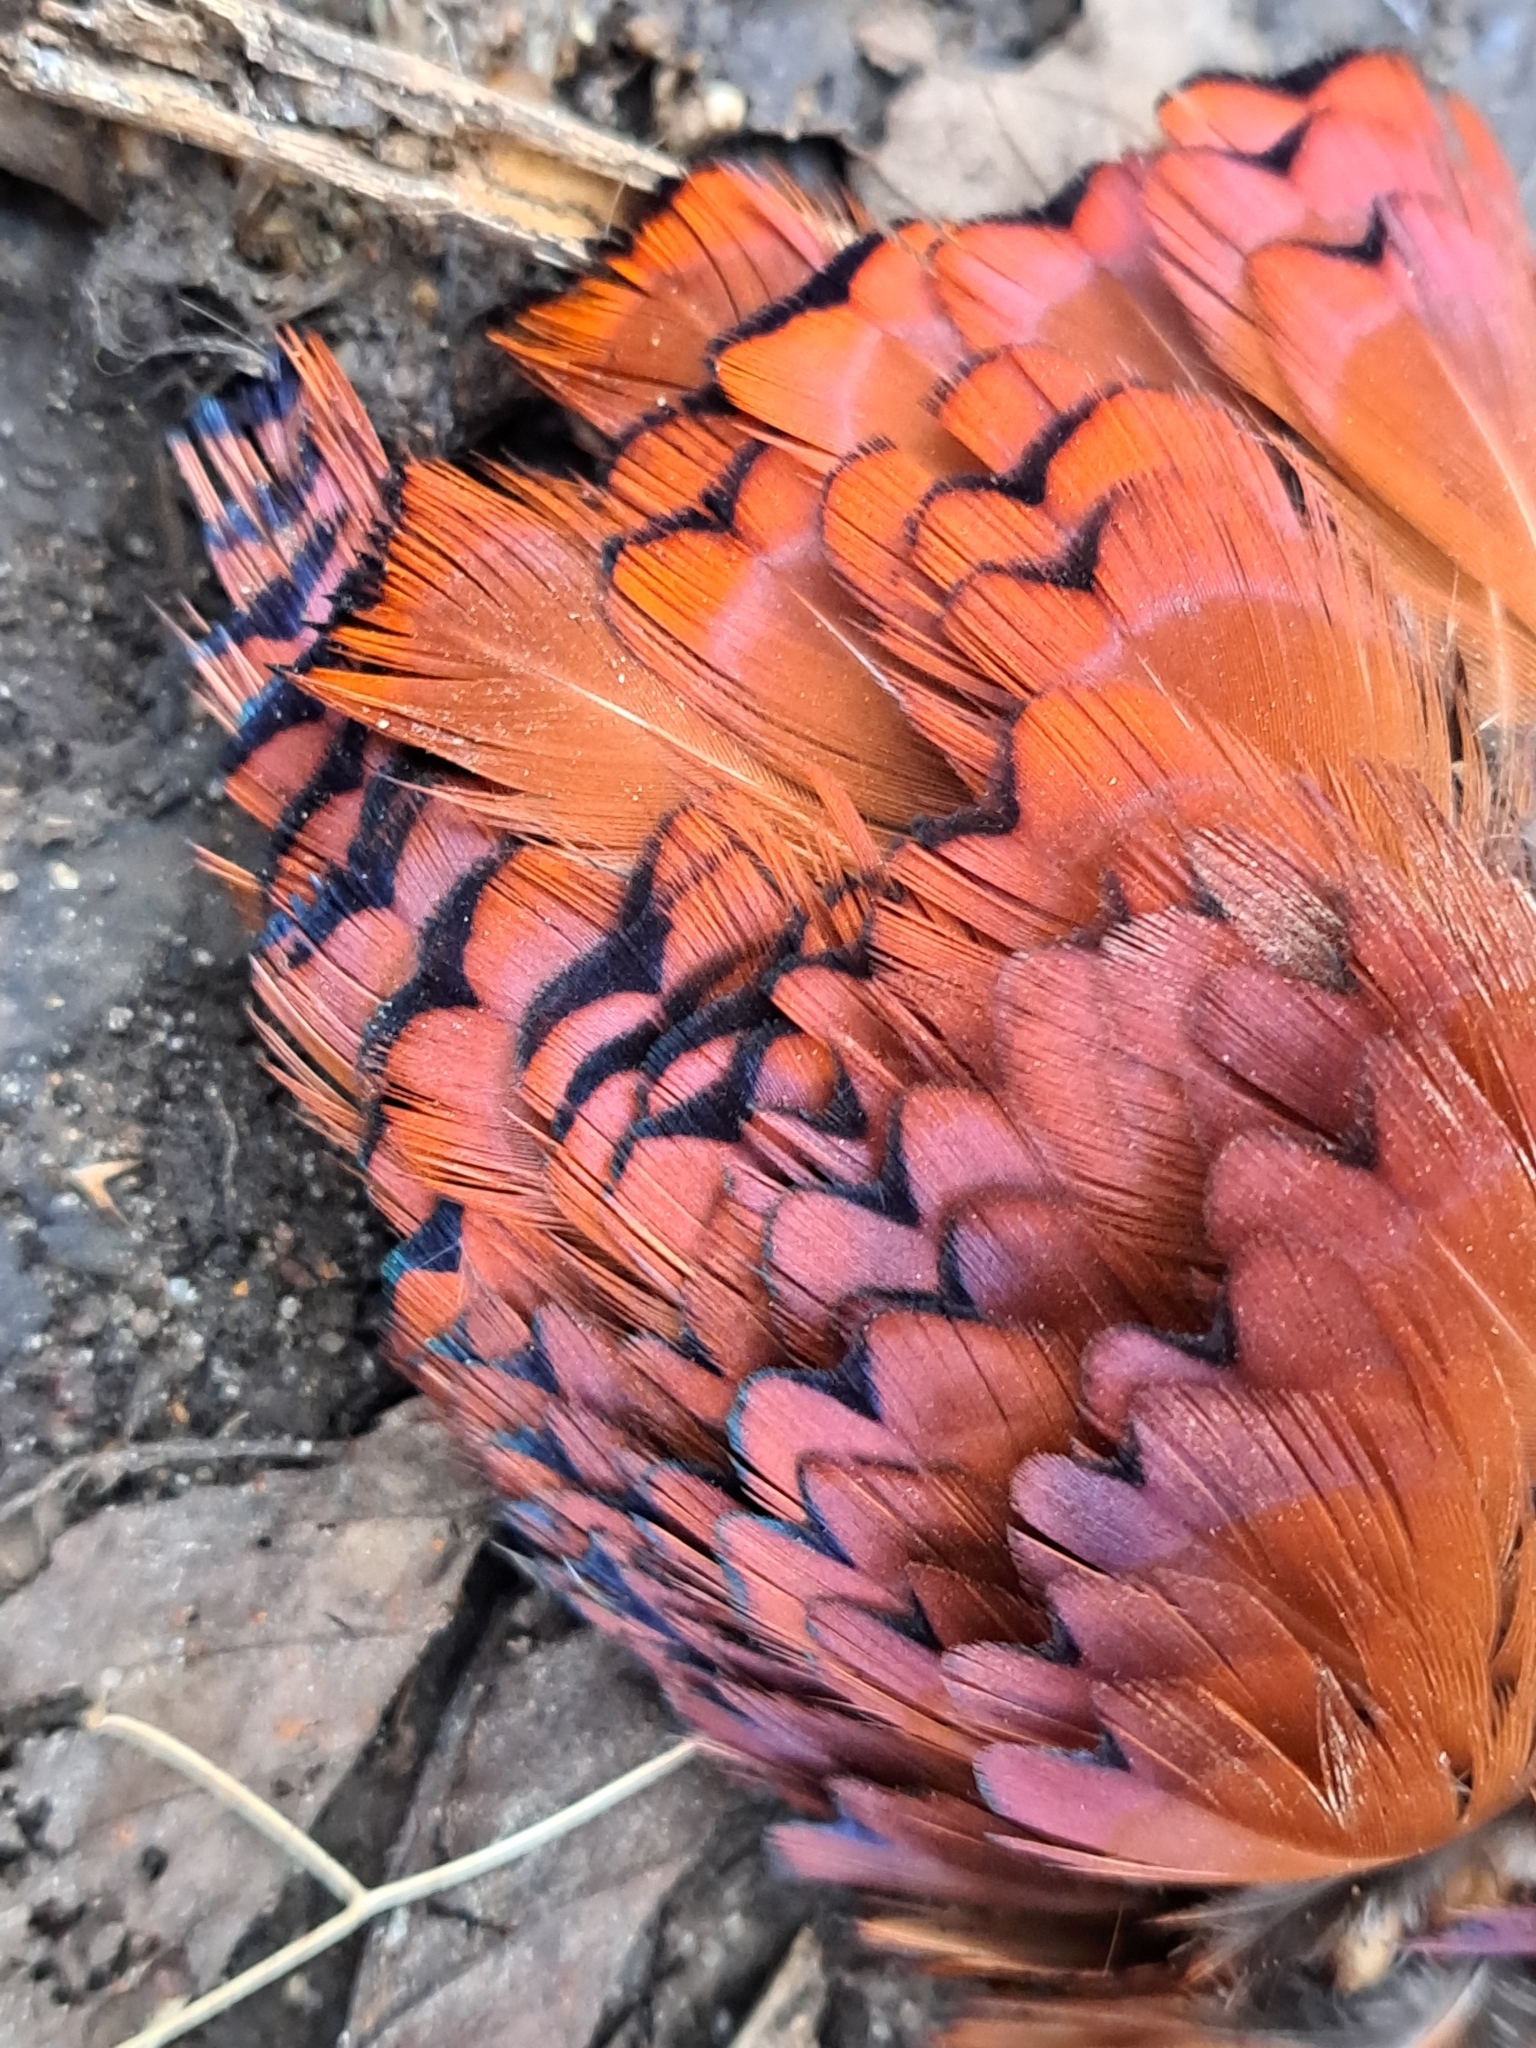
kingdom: Animalia
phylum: Chordata
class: Aves
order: Galliformes
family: Phasianidae
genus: Phasianus
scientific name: Phasianus colchicus
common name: Common pheasant
